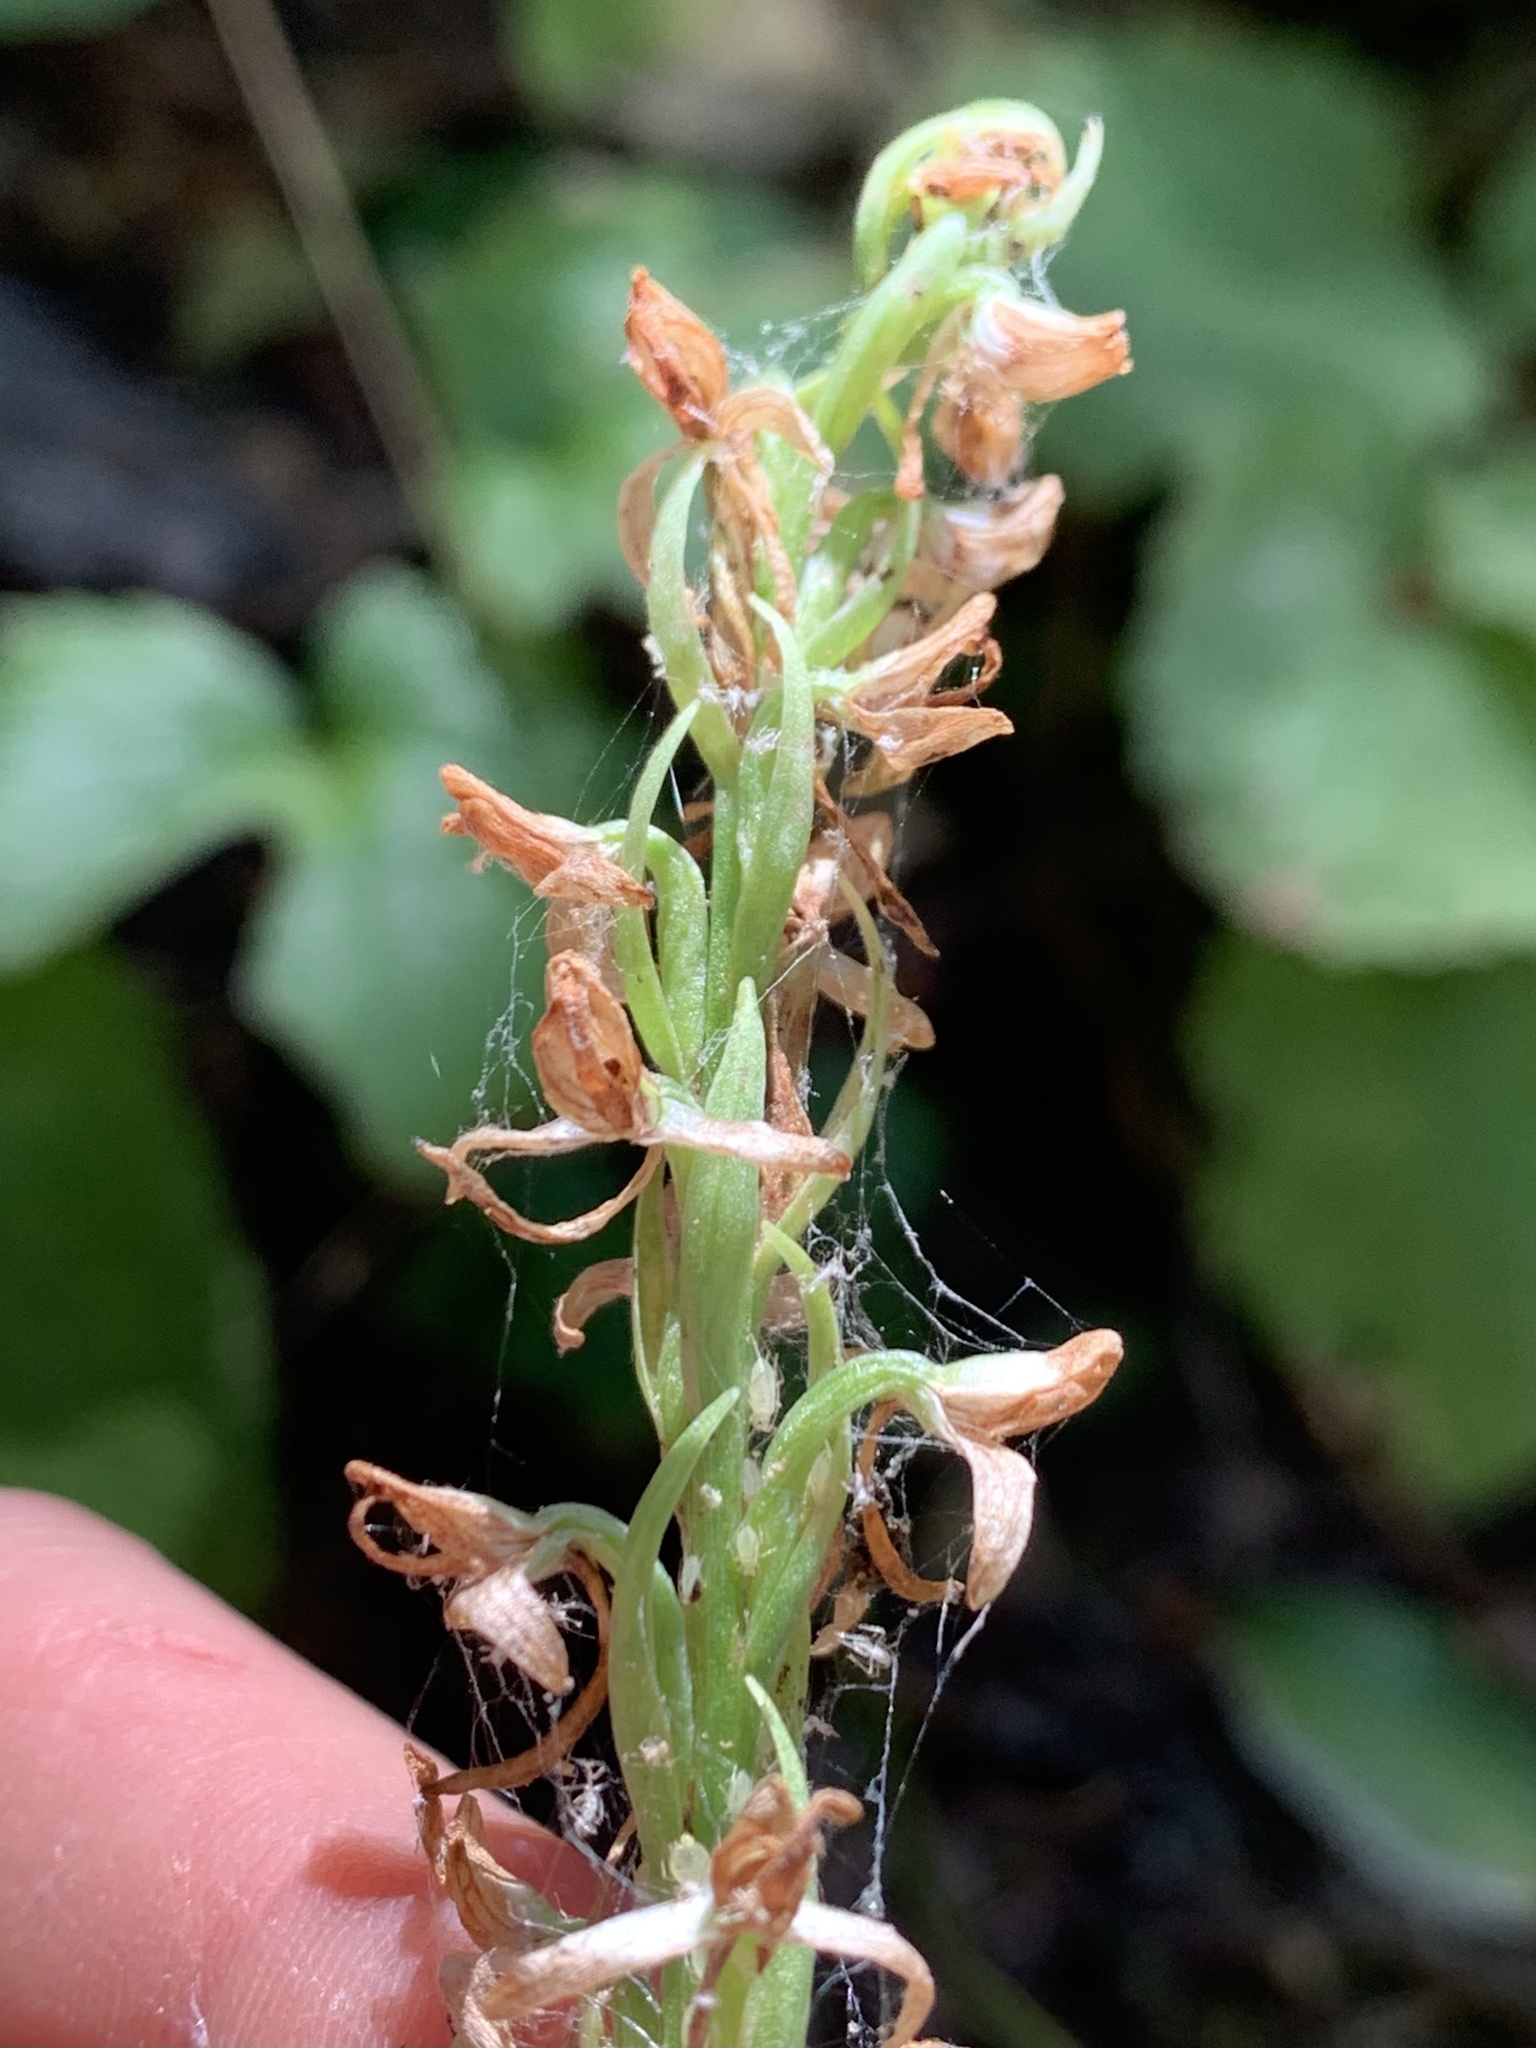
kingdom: Plantae
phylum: Tracheophyta
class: Liliopsida
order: Asparagales
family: Orchidaceae
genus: Platanthera
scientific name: Platanthera dilatata
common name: Bog candles
